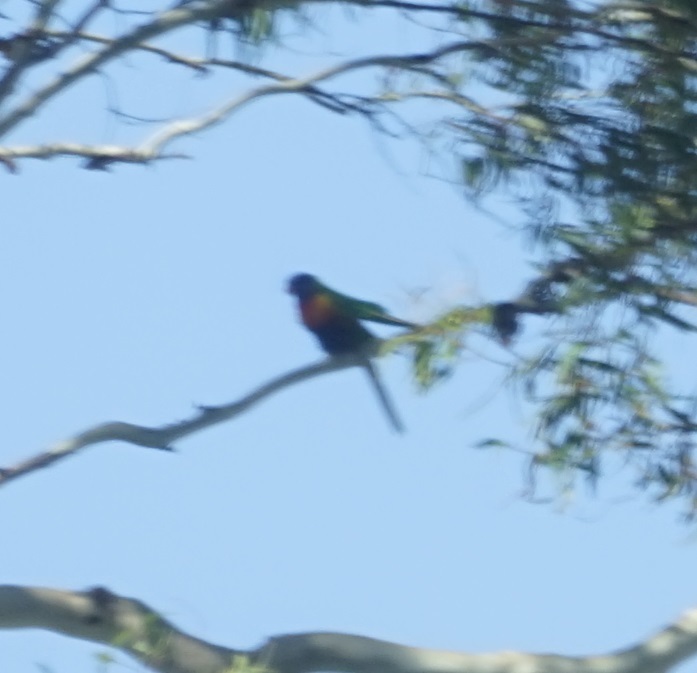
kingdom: Animalia
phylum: Chordata
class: Aves
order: Psittaciformes
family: Psittacidae
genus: Trichoglossus
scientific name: Trichoglossus haematodus
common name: Coconut lorikeet
